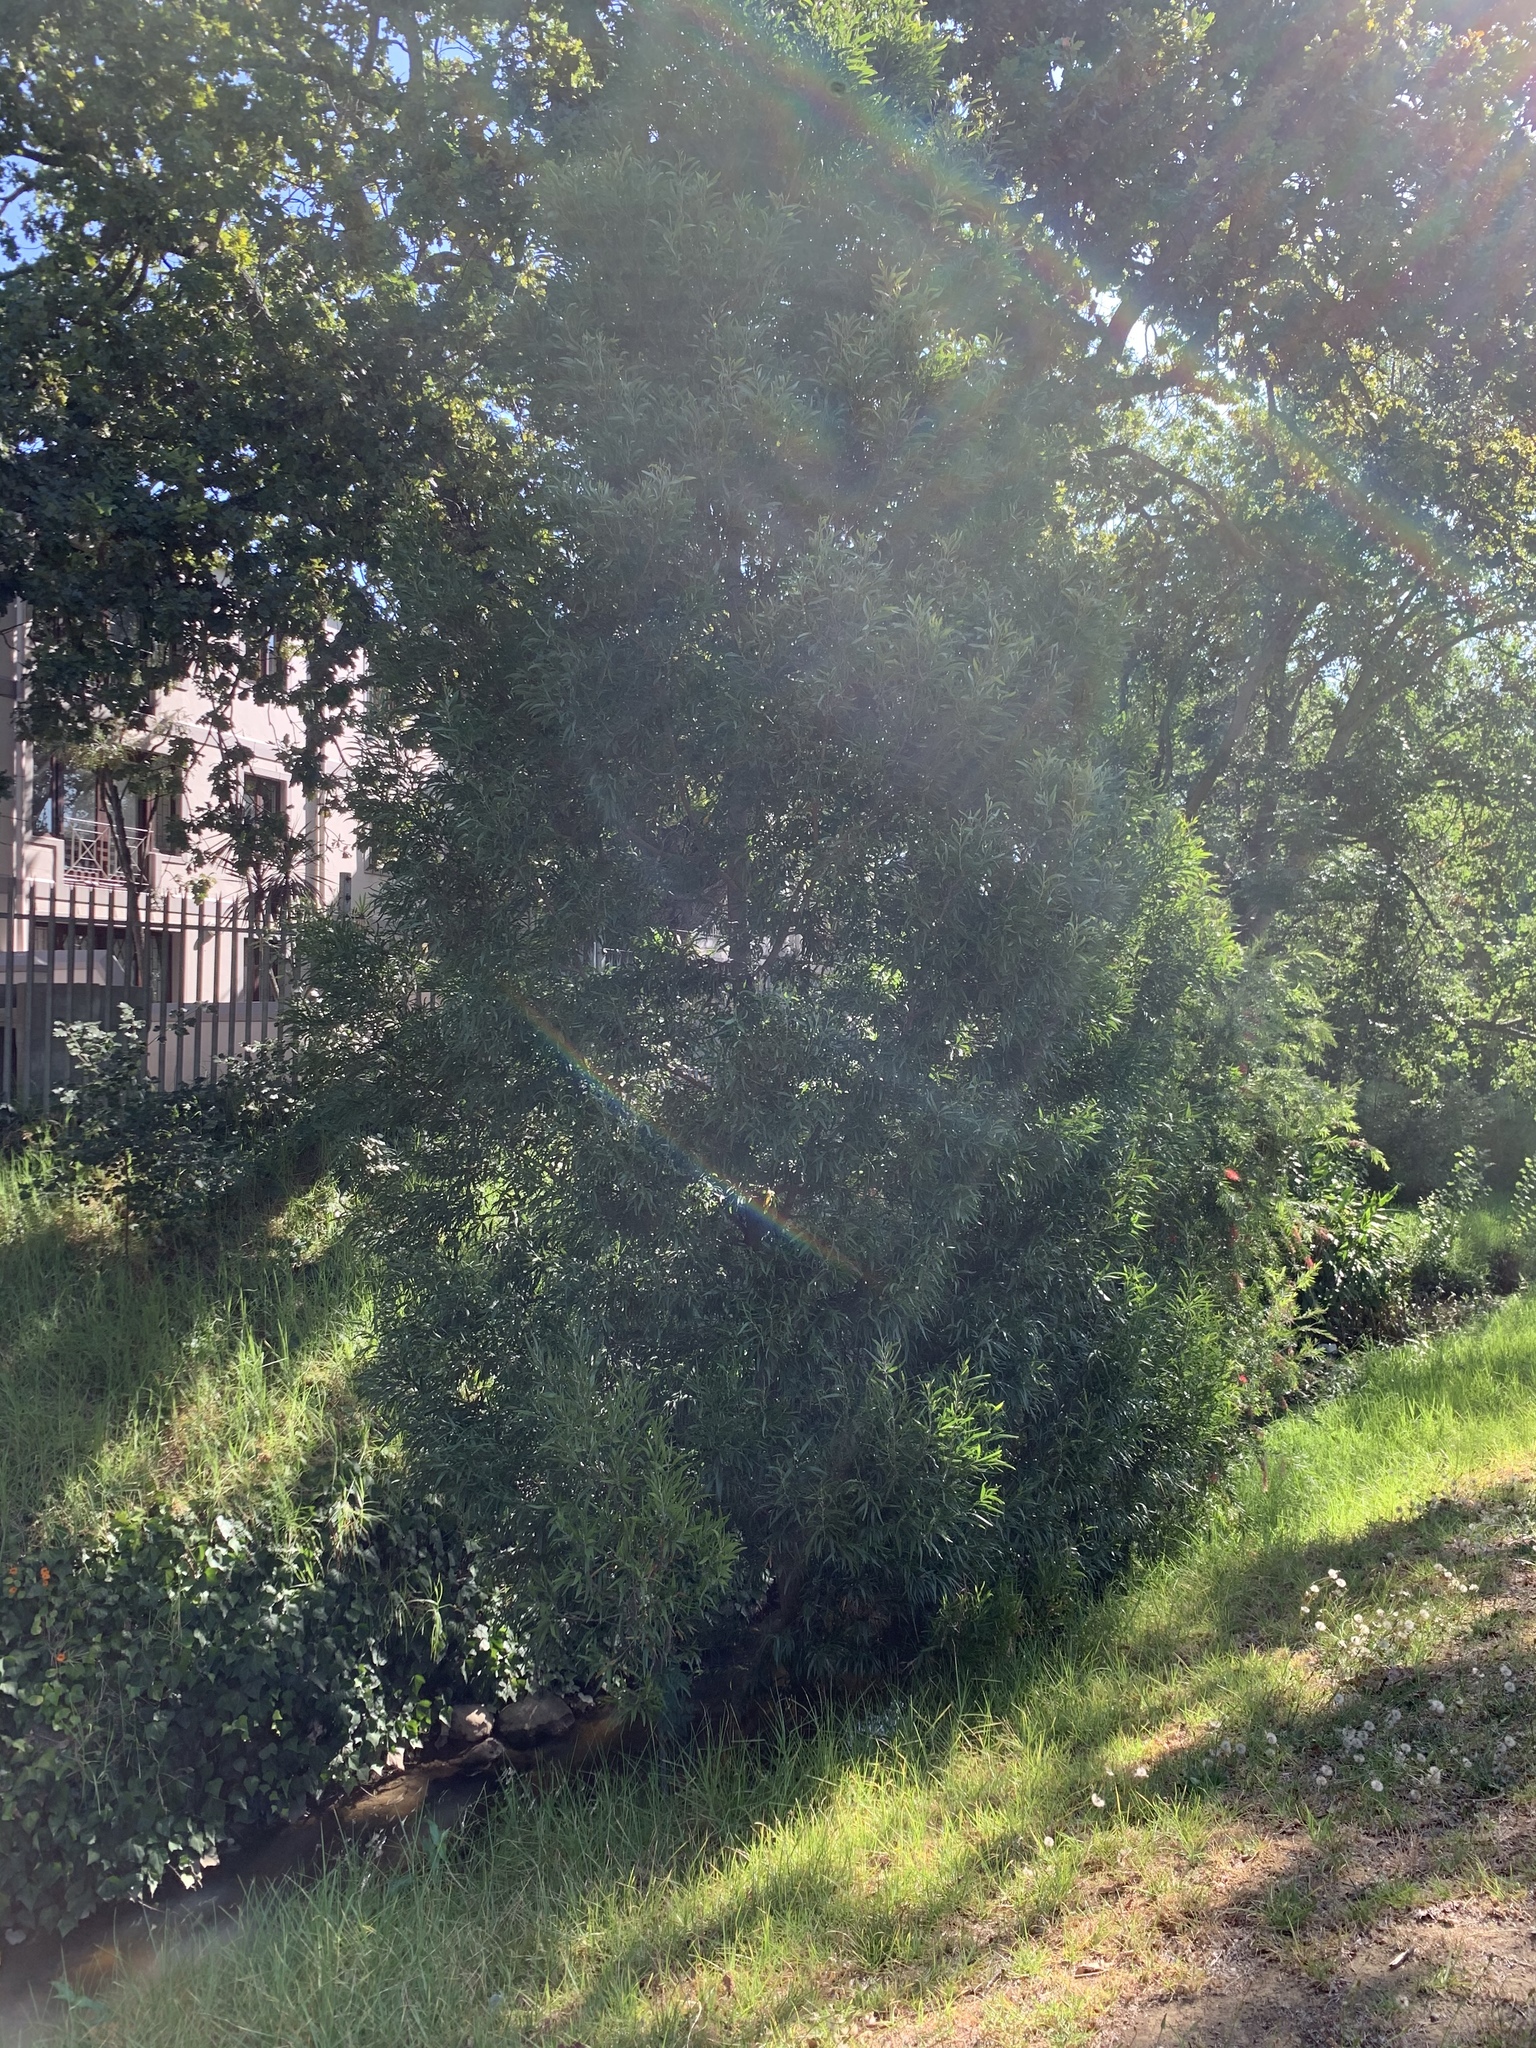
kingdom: Plantae
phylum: Tracheophyta
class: Magnoliopsida
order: Fabales
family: Fabaceae
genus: Acacia
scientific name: Acacia melanoxylon
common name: Blackwood
